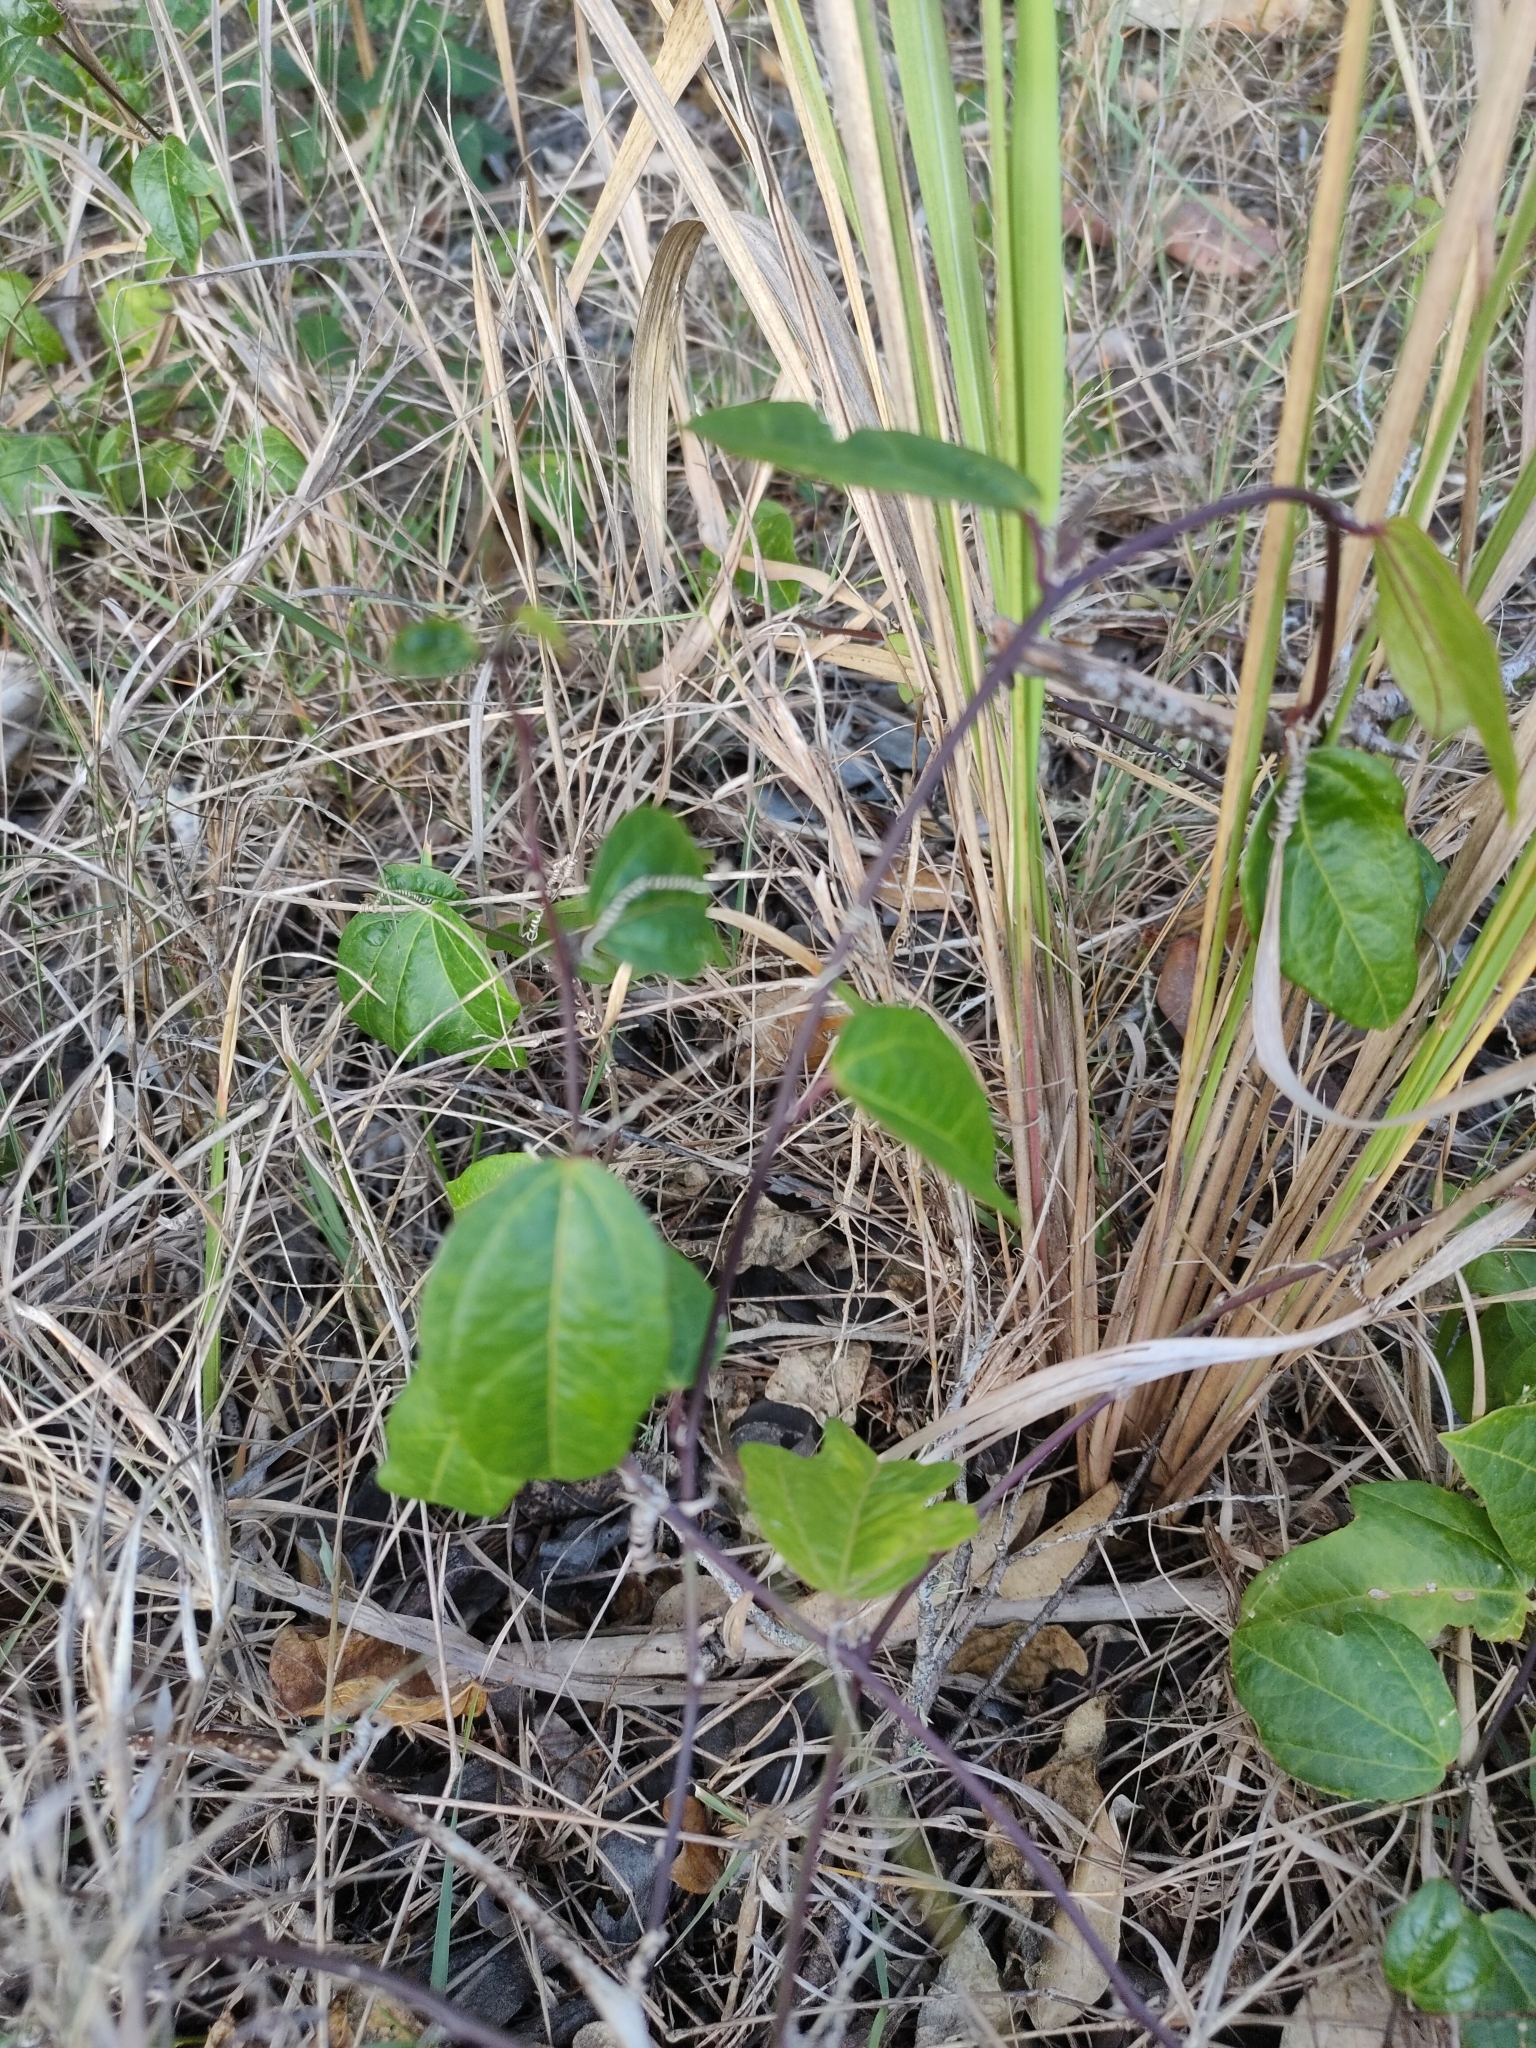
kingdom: Plantae
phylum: Tracheophyta
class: Magnoliopsida
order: Malpighiales
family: Passifloraceae
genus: Passiflora
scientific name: Passiflora pallida
